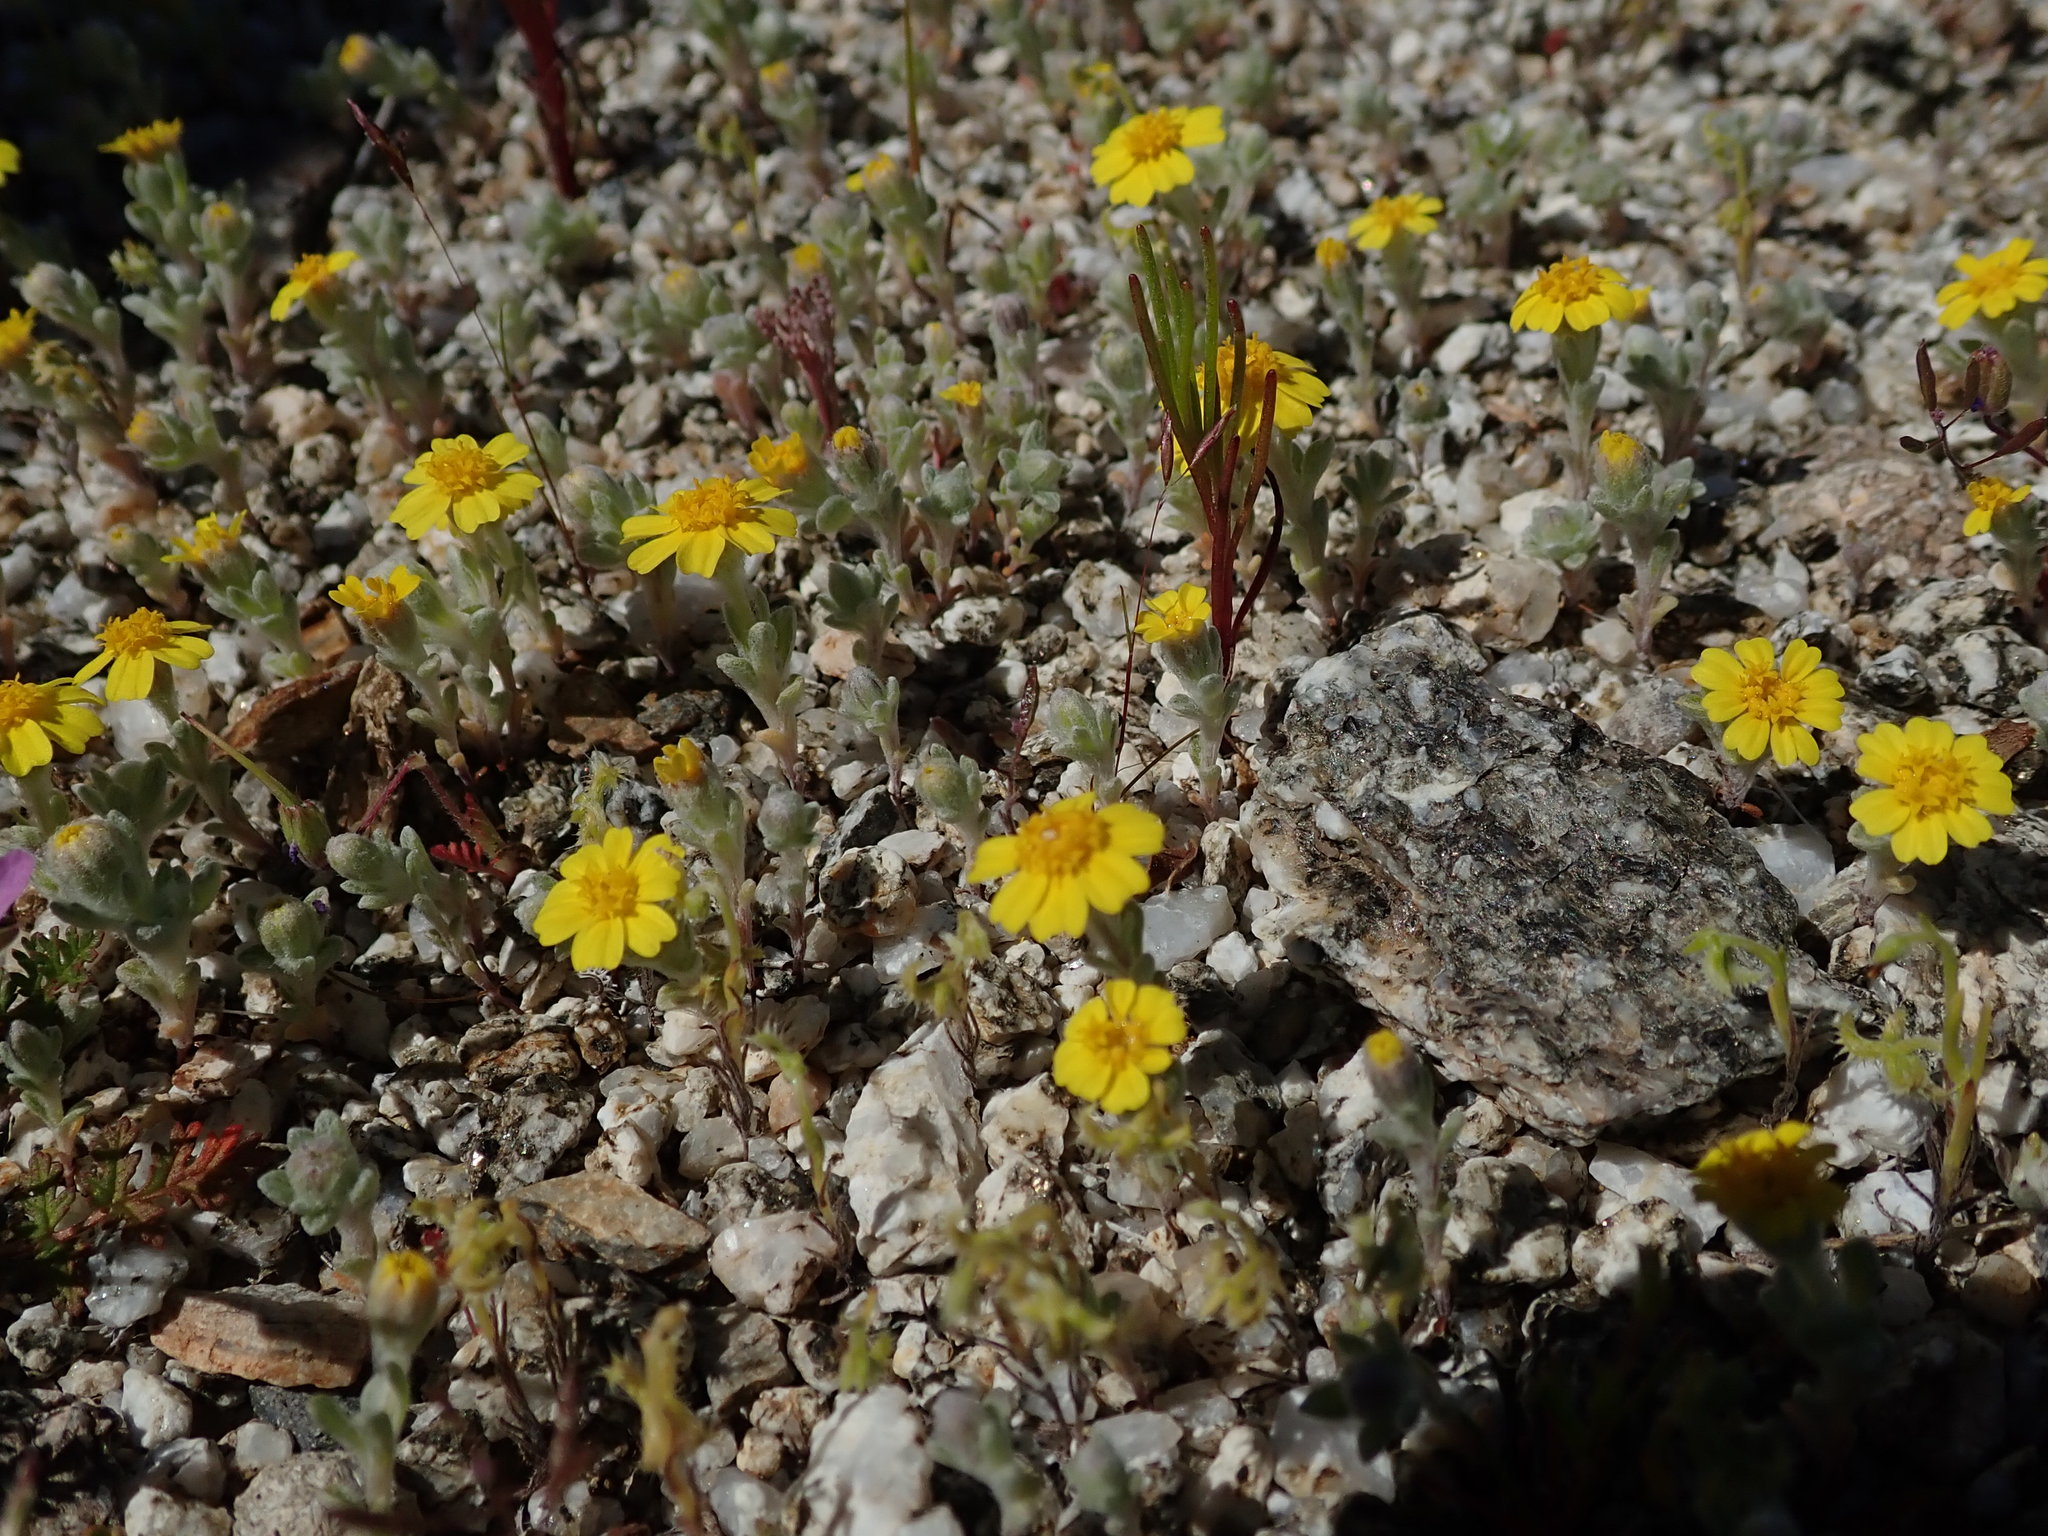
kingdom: Plantae
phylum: Tracheophyta
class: Magnoliopsida
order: Asterales
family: Asteraceae
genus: Eriophyllum
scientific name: Eriophyllum wallacei
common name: Wallace's woolly daisy
